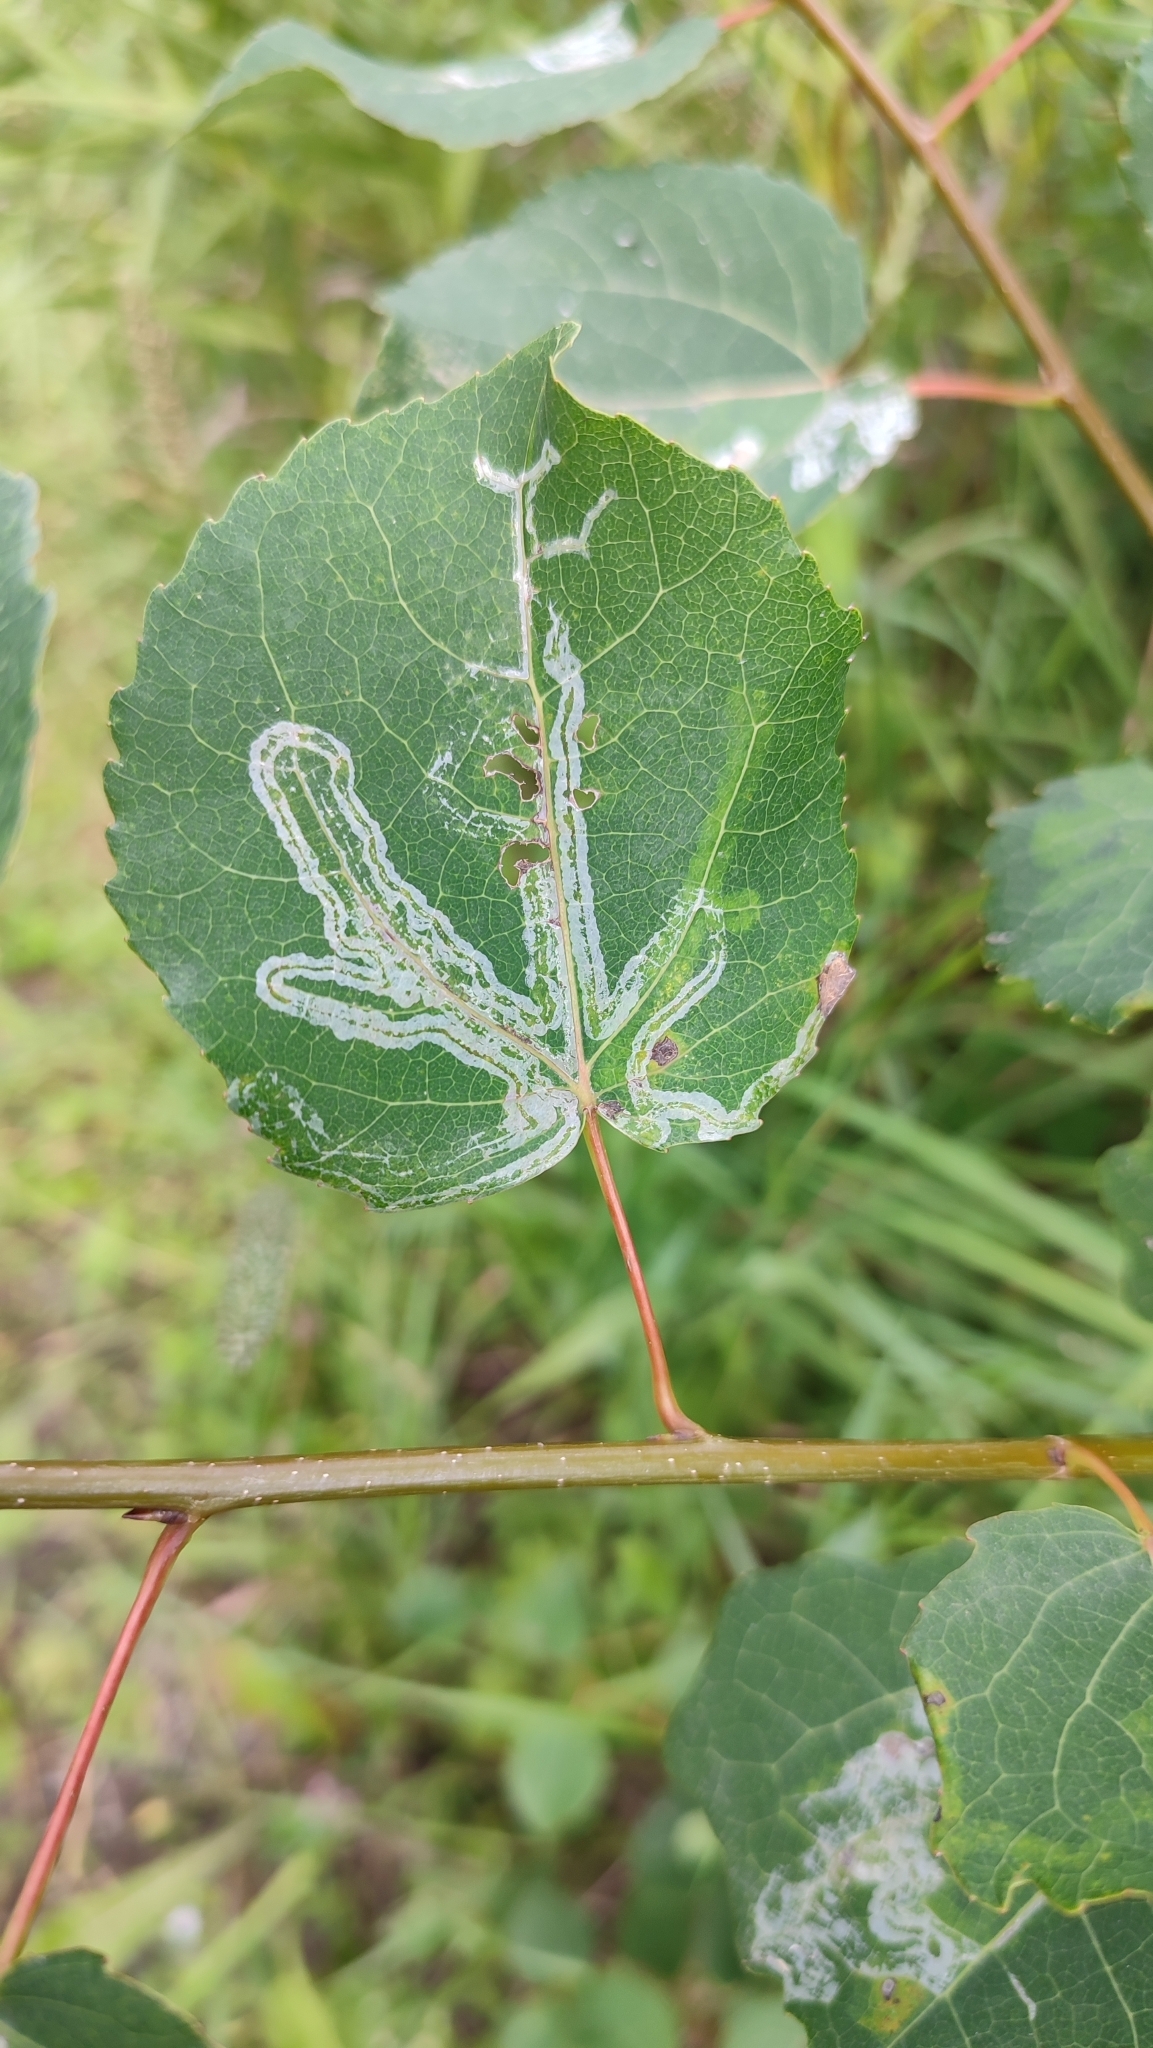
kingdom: Animalia
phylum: Arthropoda
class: Insecta
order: Lepidoptera
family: Gracillariidae
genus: Phyllocnistis
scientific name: Phyllocnistis labyrinthella
